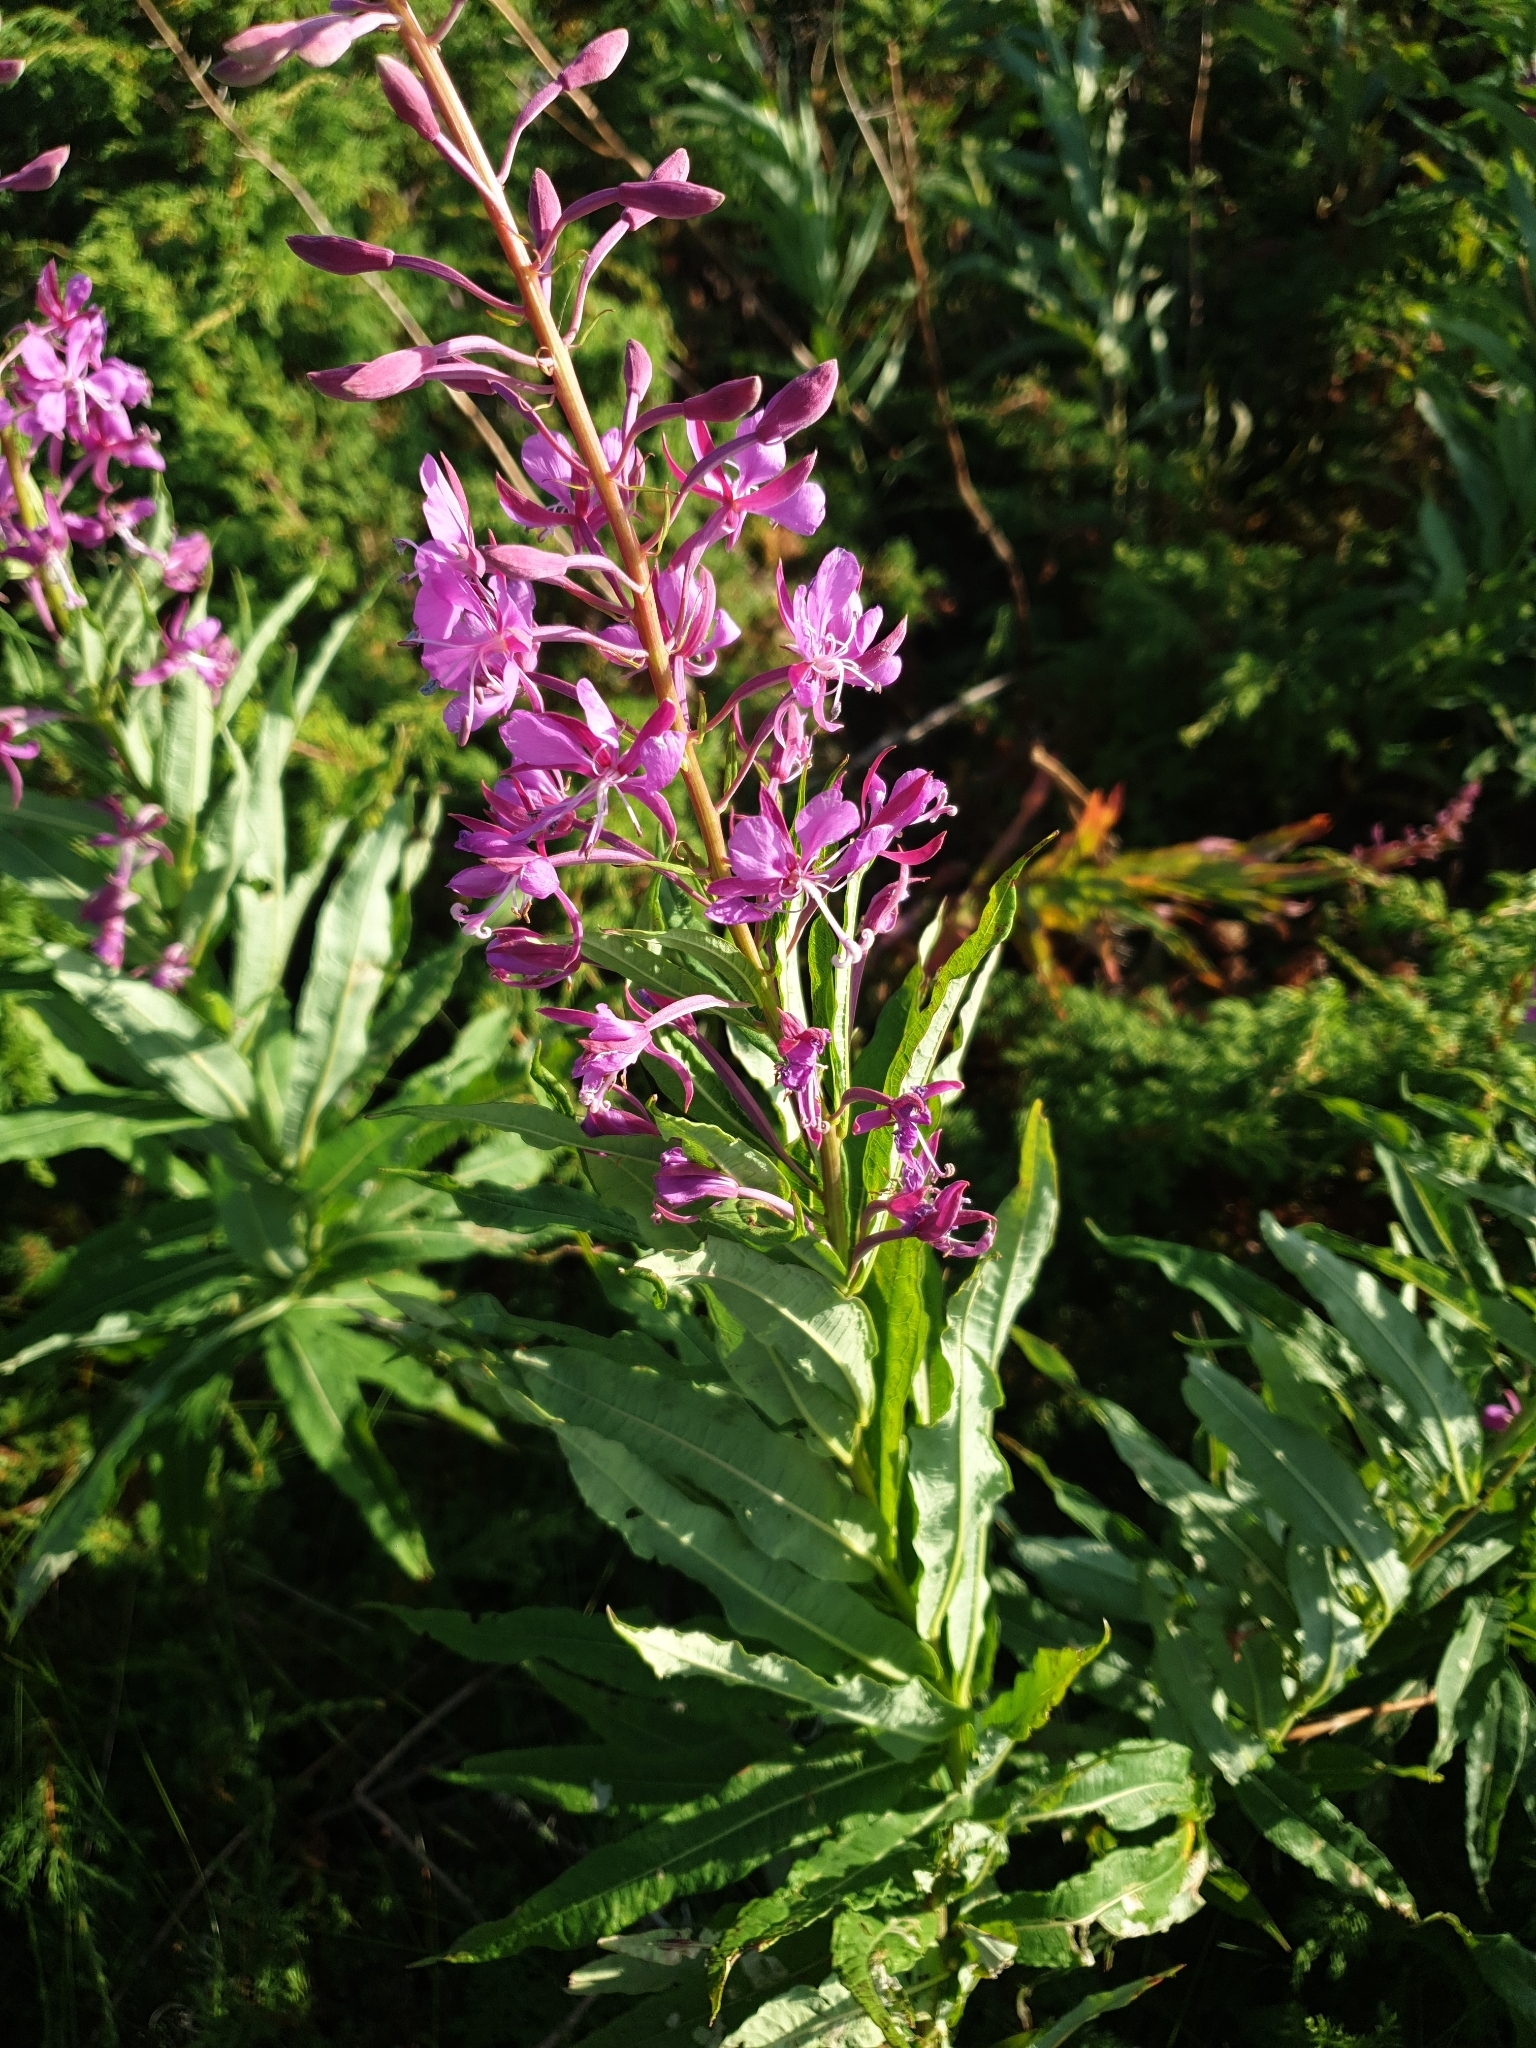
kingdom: Plantae
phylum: Tracheophyta
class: Magnoliopsida
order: Myrtales
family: Onagraceae
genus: Chamaenerion
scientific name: Chamaenerion angustifolium
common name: Fireweed
